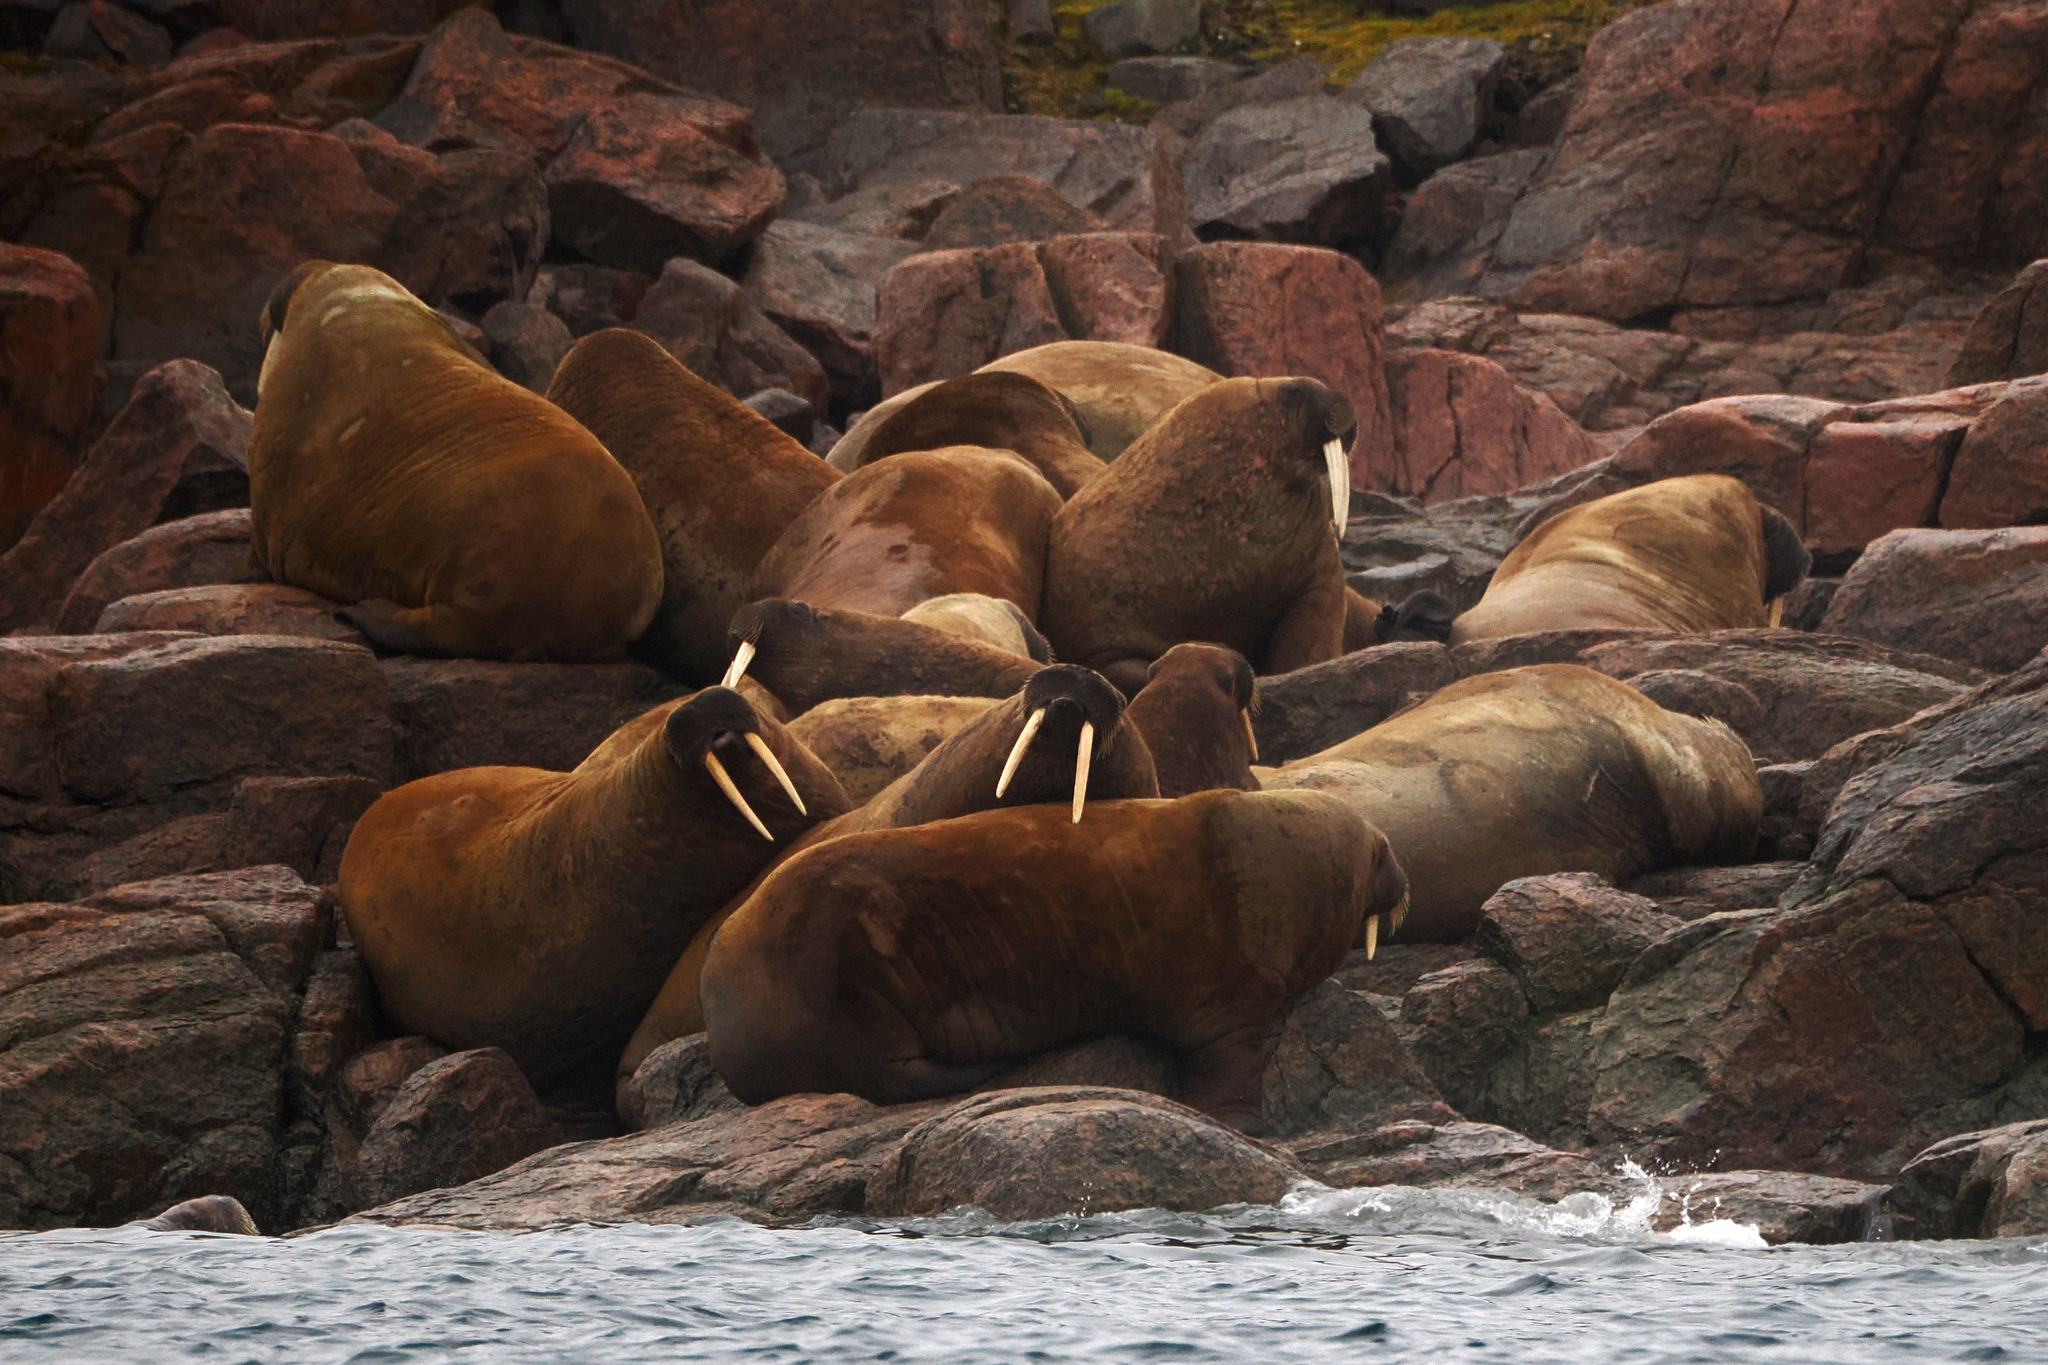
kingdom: Animalia
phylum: Chordata
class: Mammalia
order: Carnivora
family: Odobenidae
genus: Odobenus
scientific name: Odobenus rosmarus
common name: Walrus
